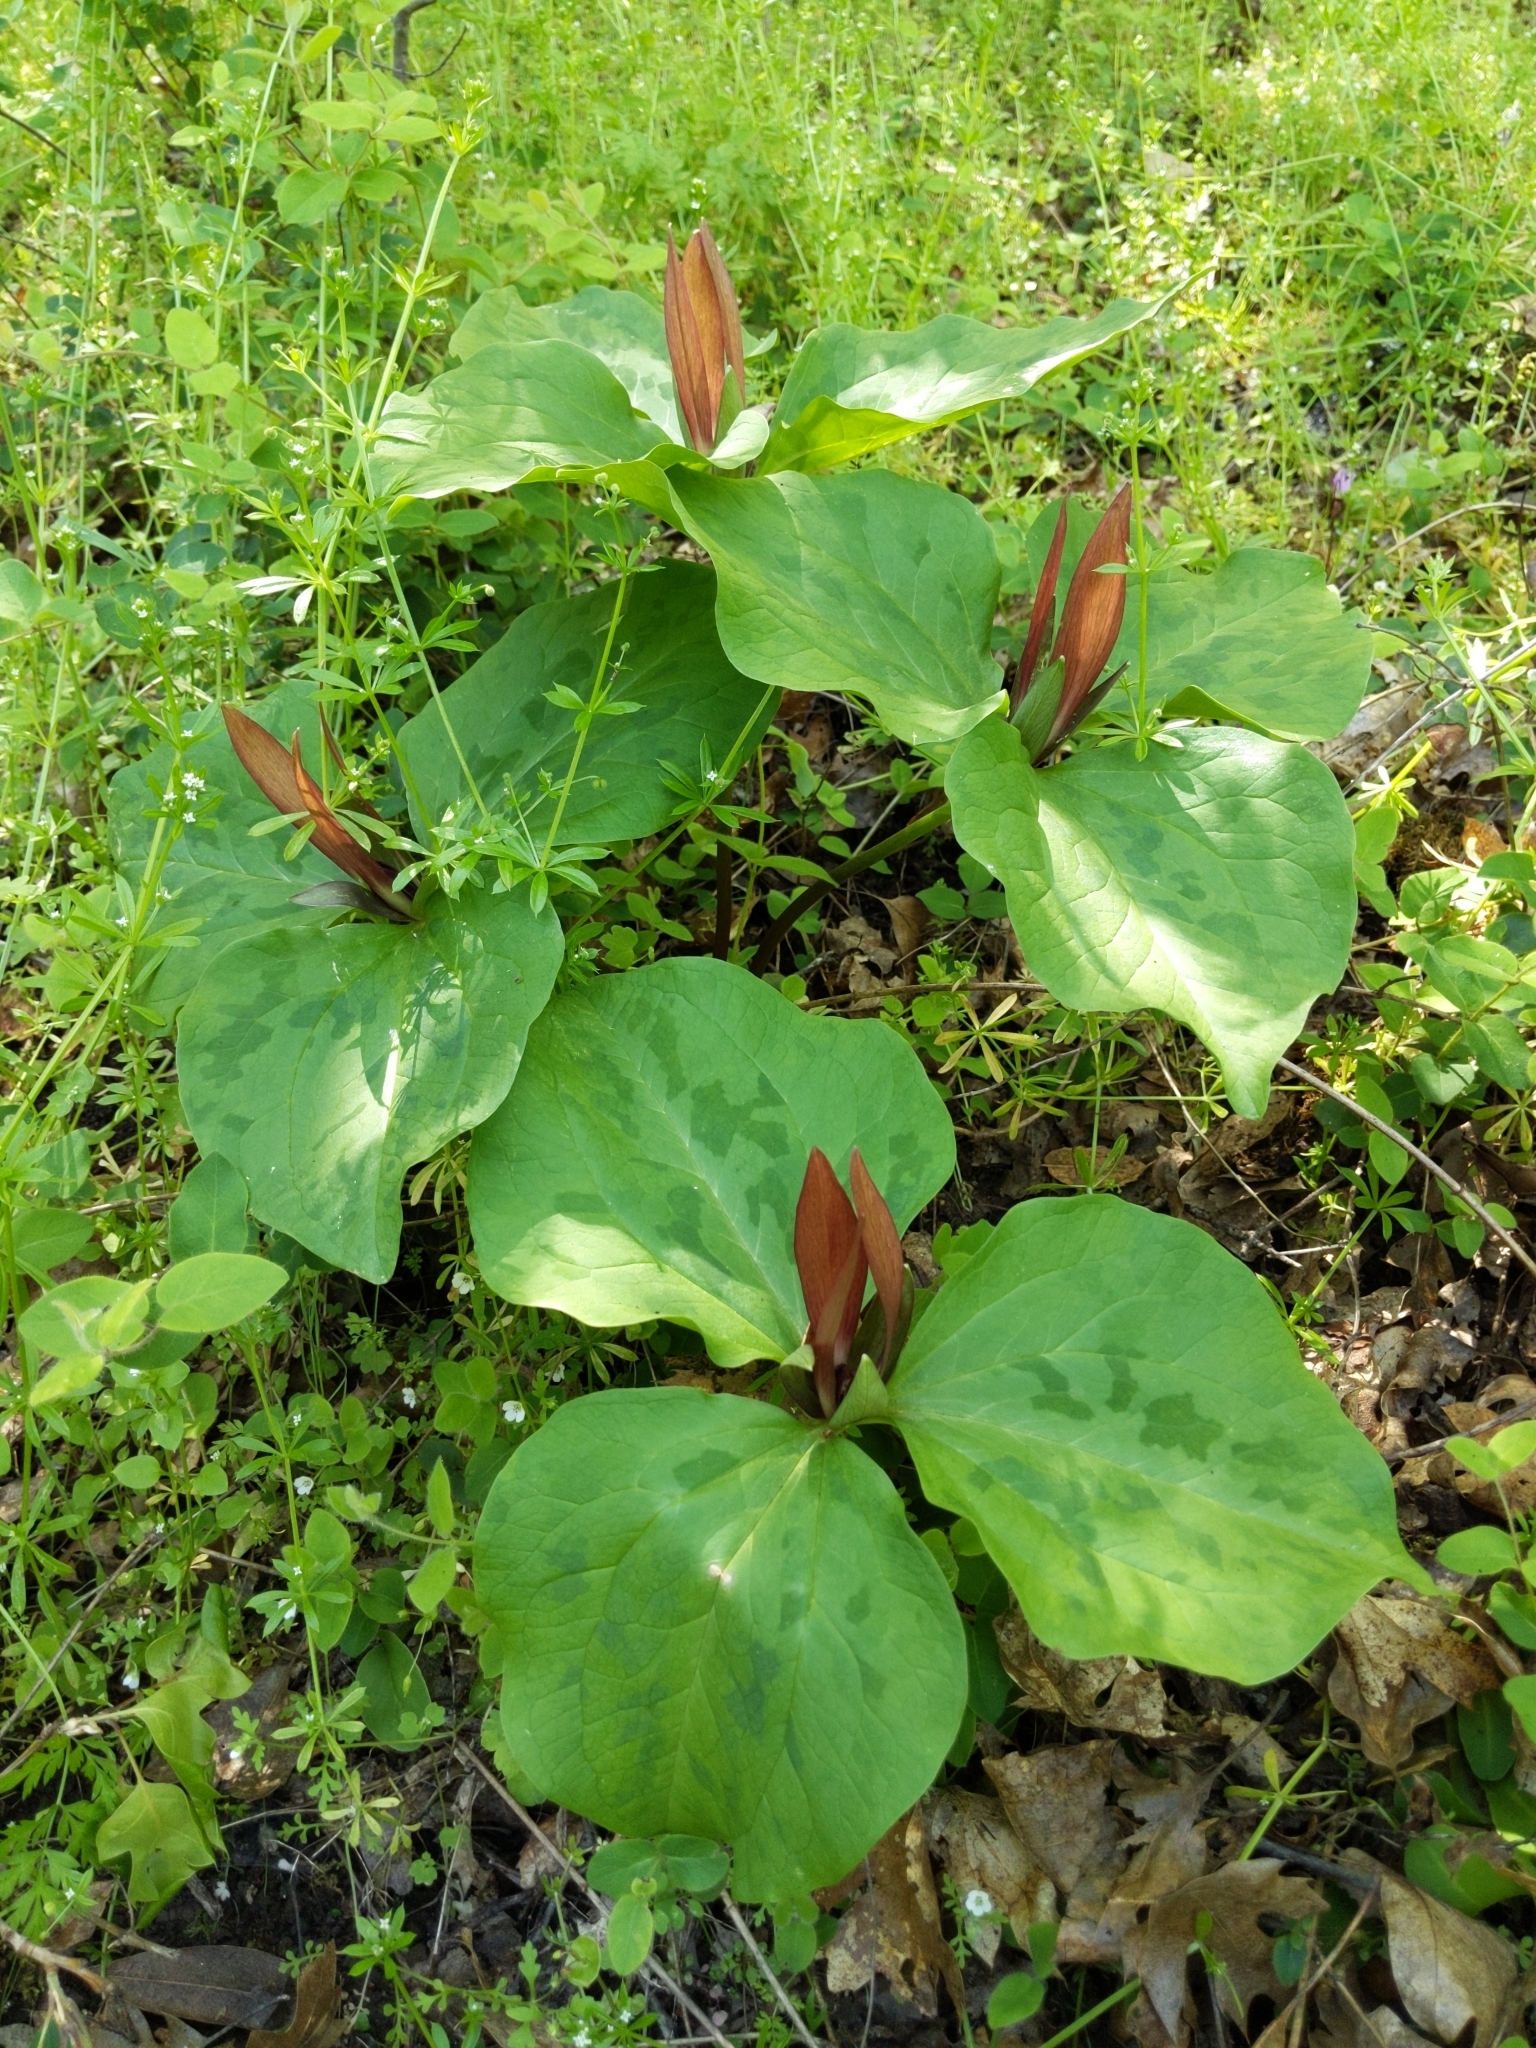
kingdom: Plantae
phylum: Tracheophyta
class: Liliopsida
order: Liliales
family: Melanthiaceae
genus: Trillium
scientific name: Trillium chloropetalum
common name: Giant trillium
